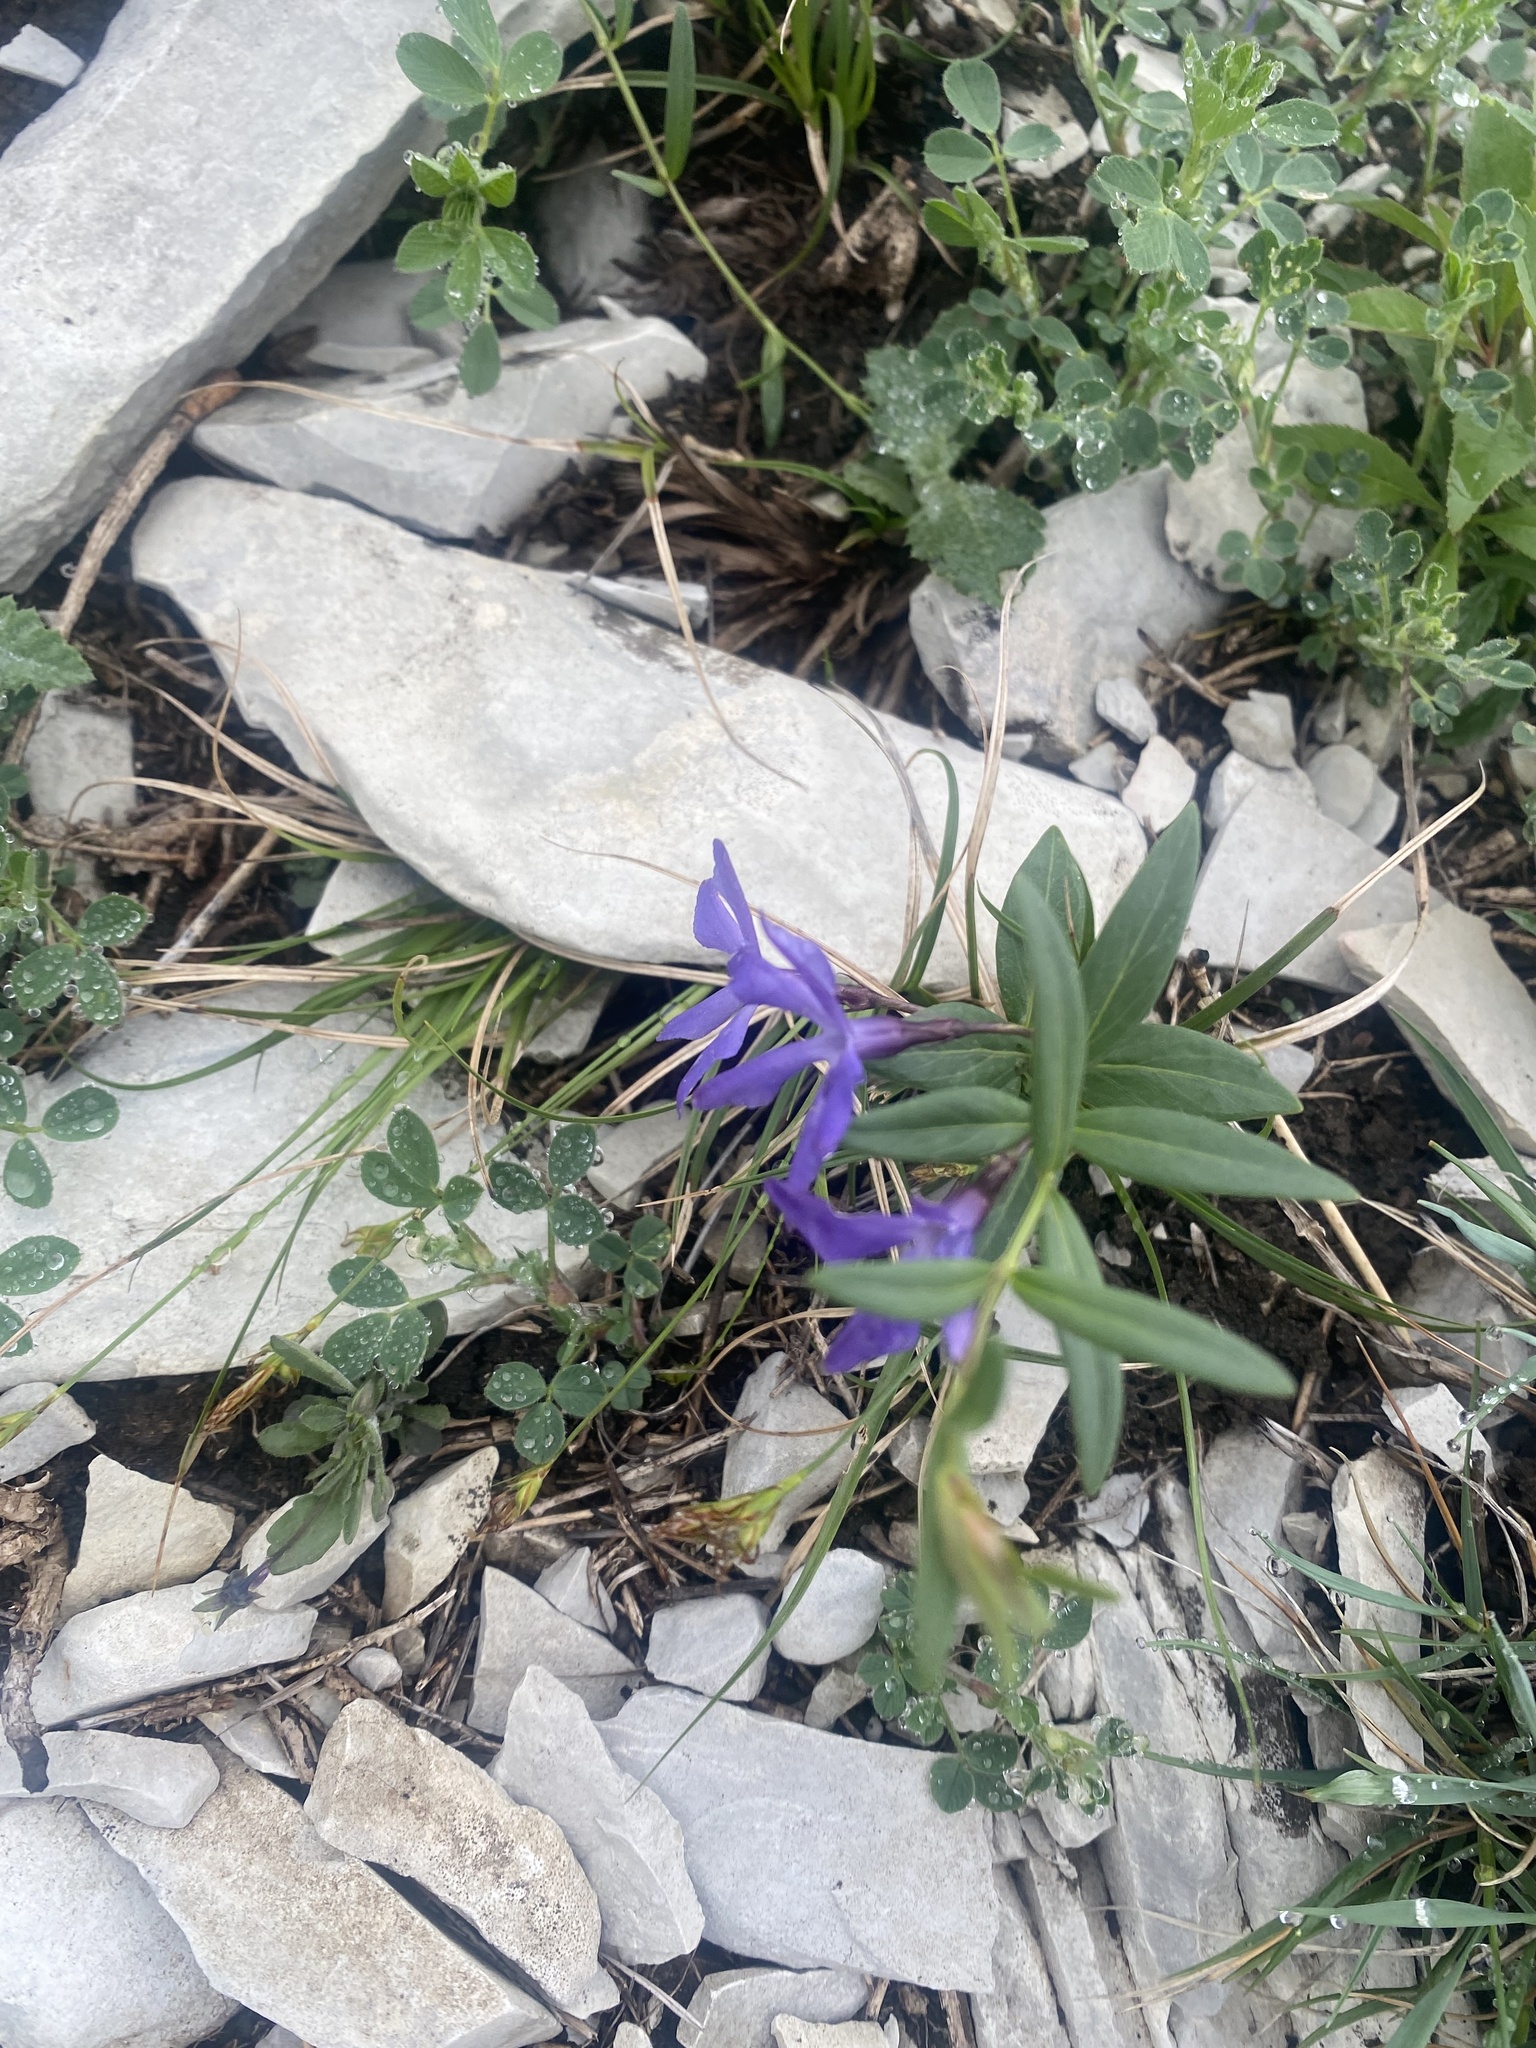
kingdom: Plantae
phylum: Tracheophyta
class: Magnoliopsida
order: Gentianales
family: Apocynaceae
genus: Vinca
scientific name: Vinca herbacea
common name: Herbaceous periwinkle
